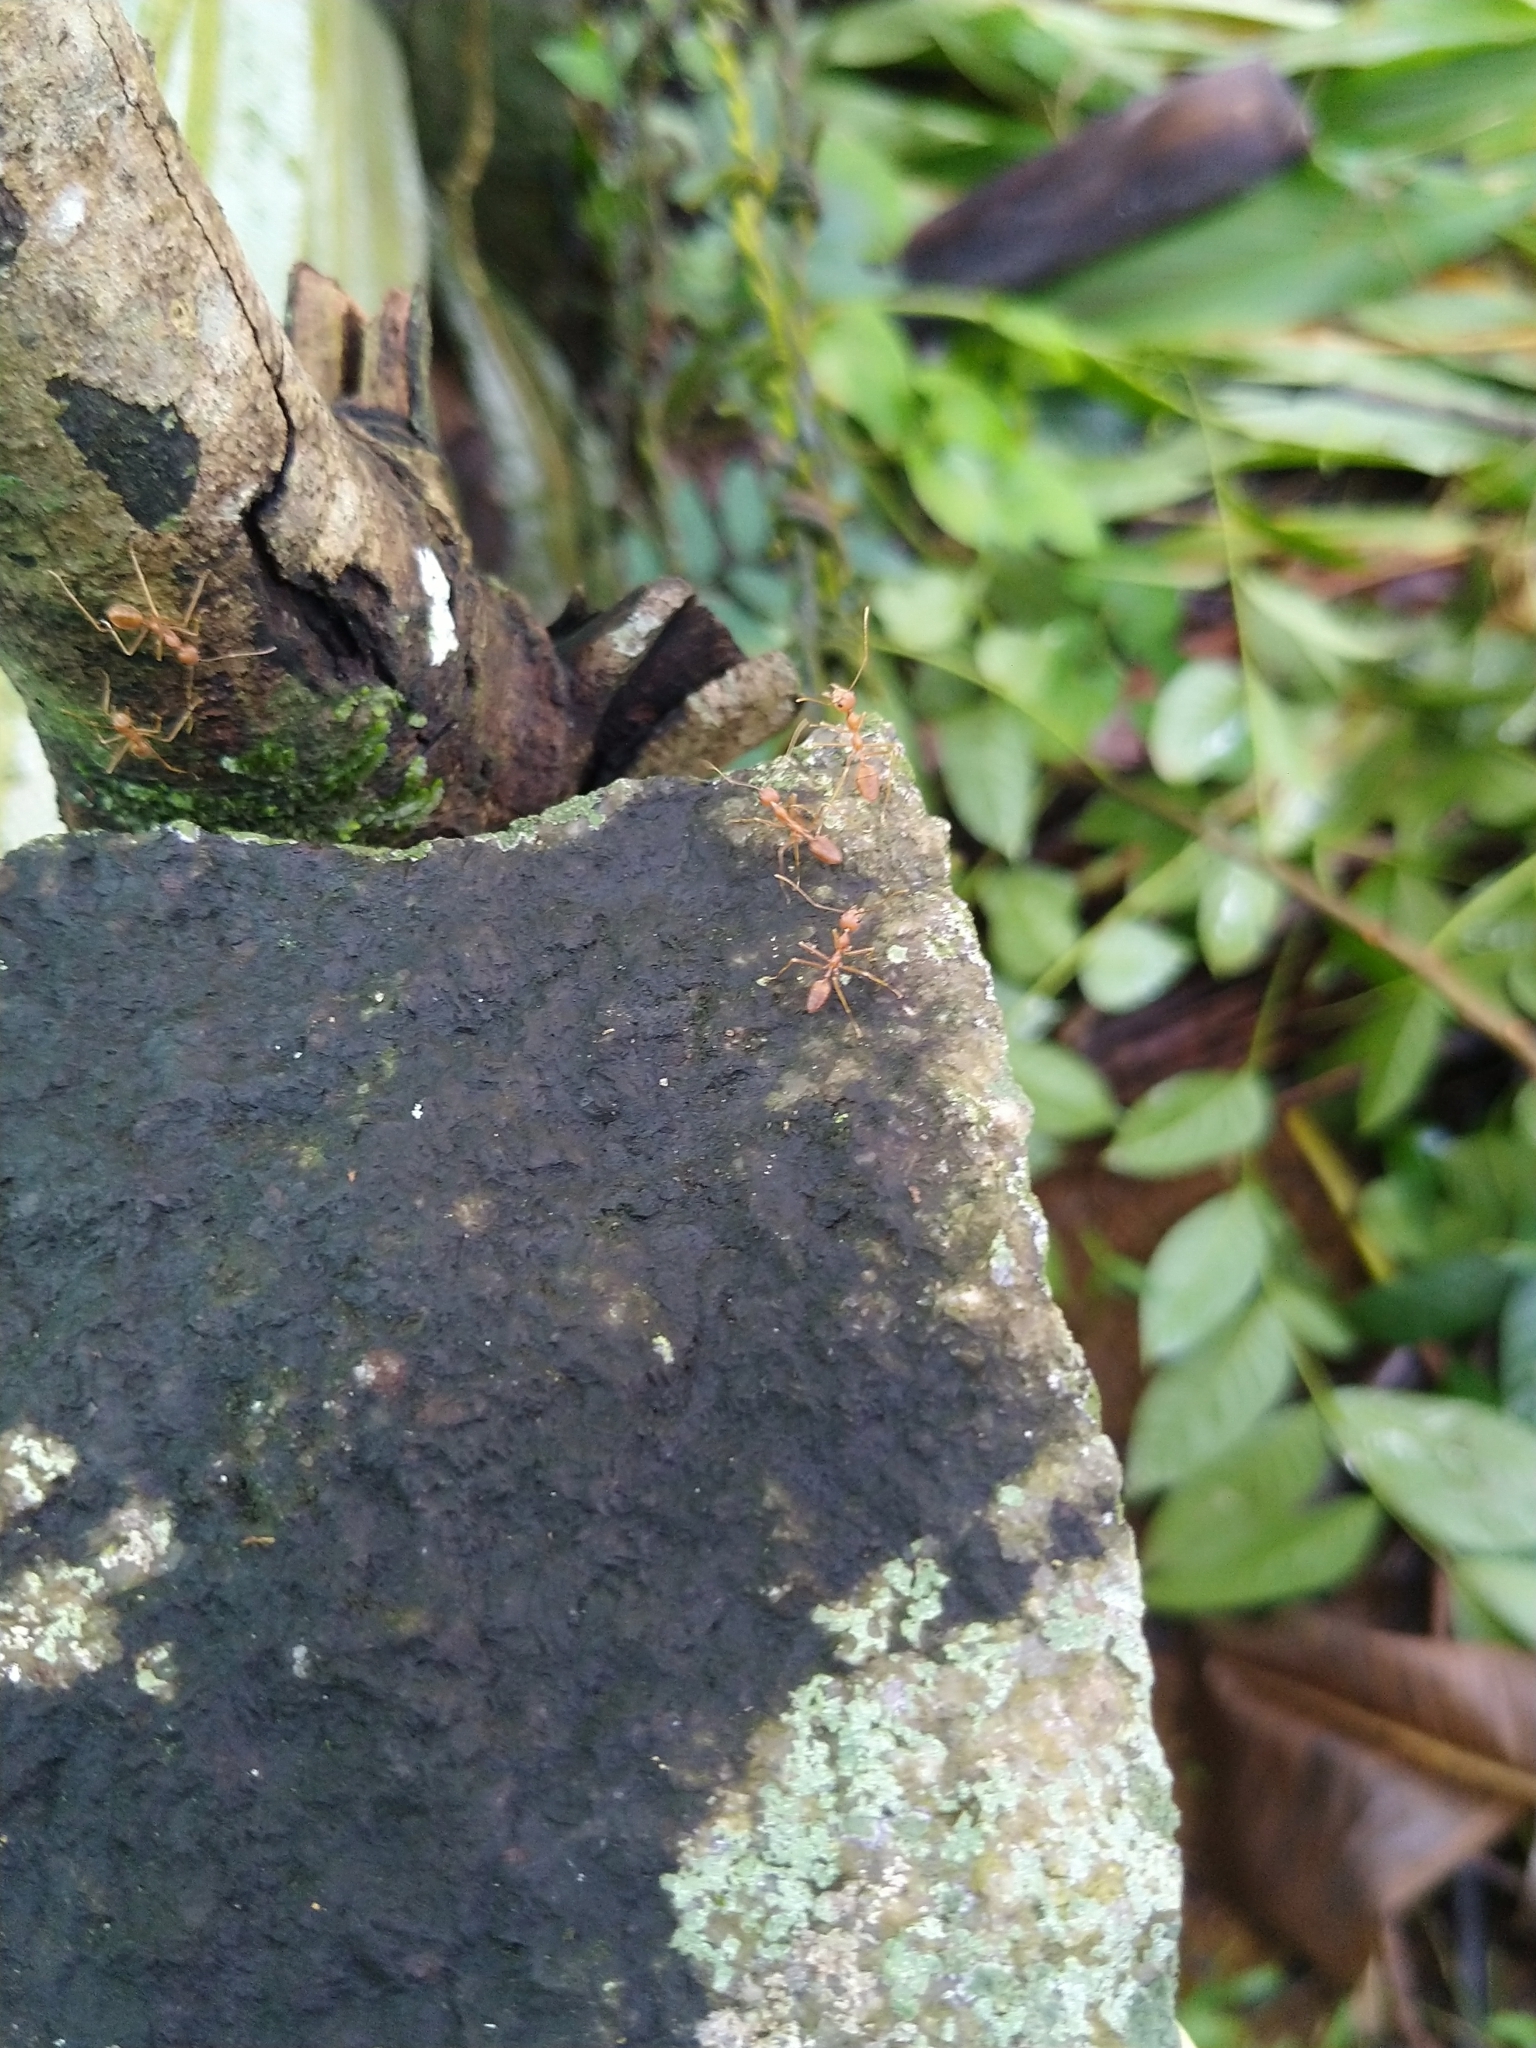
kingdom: Animalia
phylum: Arthropoda
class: Insecta
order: Hymenoptera
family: Formicidae
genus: Oecophylla
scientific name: Oecophylla smaragdina
